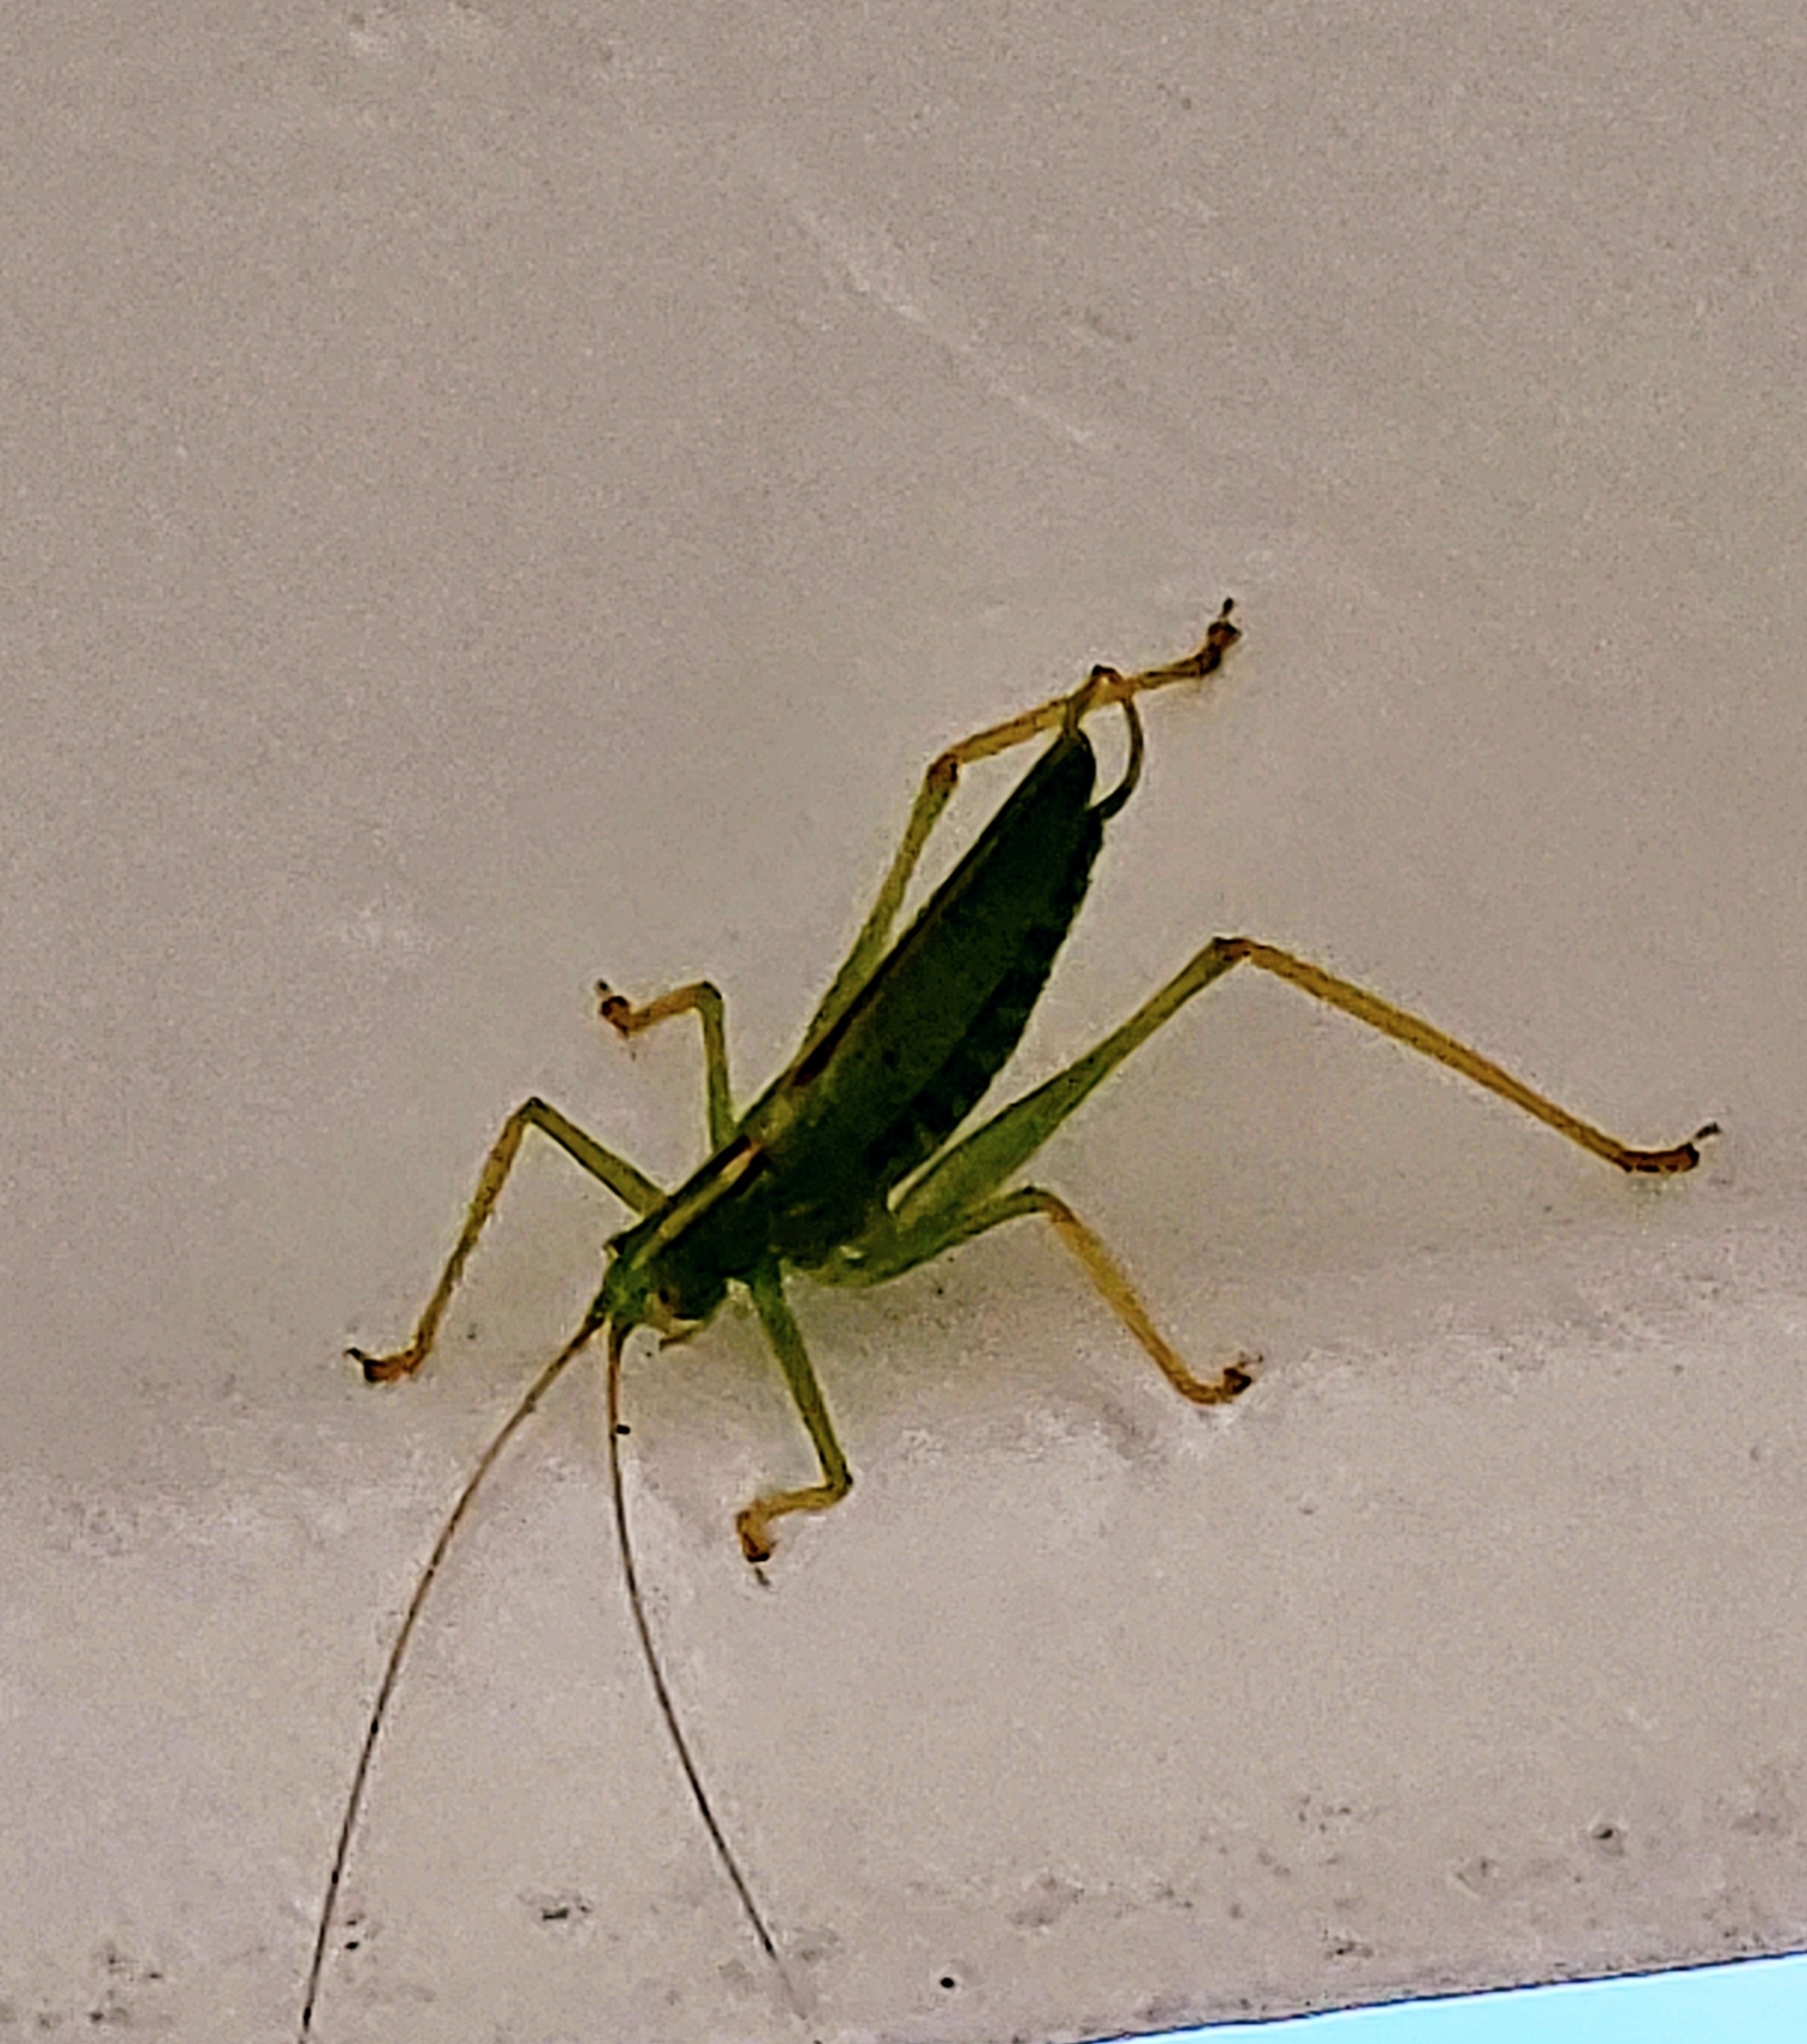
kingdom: Animalia
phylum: Arthropoda
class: Insecta
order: Orthoptera
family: Tettigoniidae
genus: Meconema
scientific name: Meconema thalassinum
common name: Oak bush-cricket
